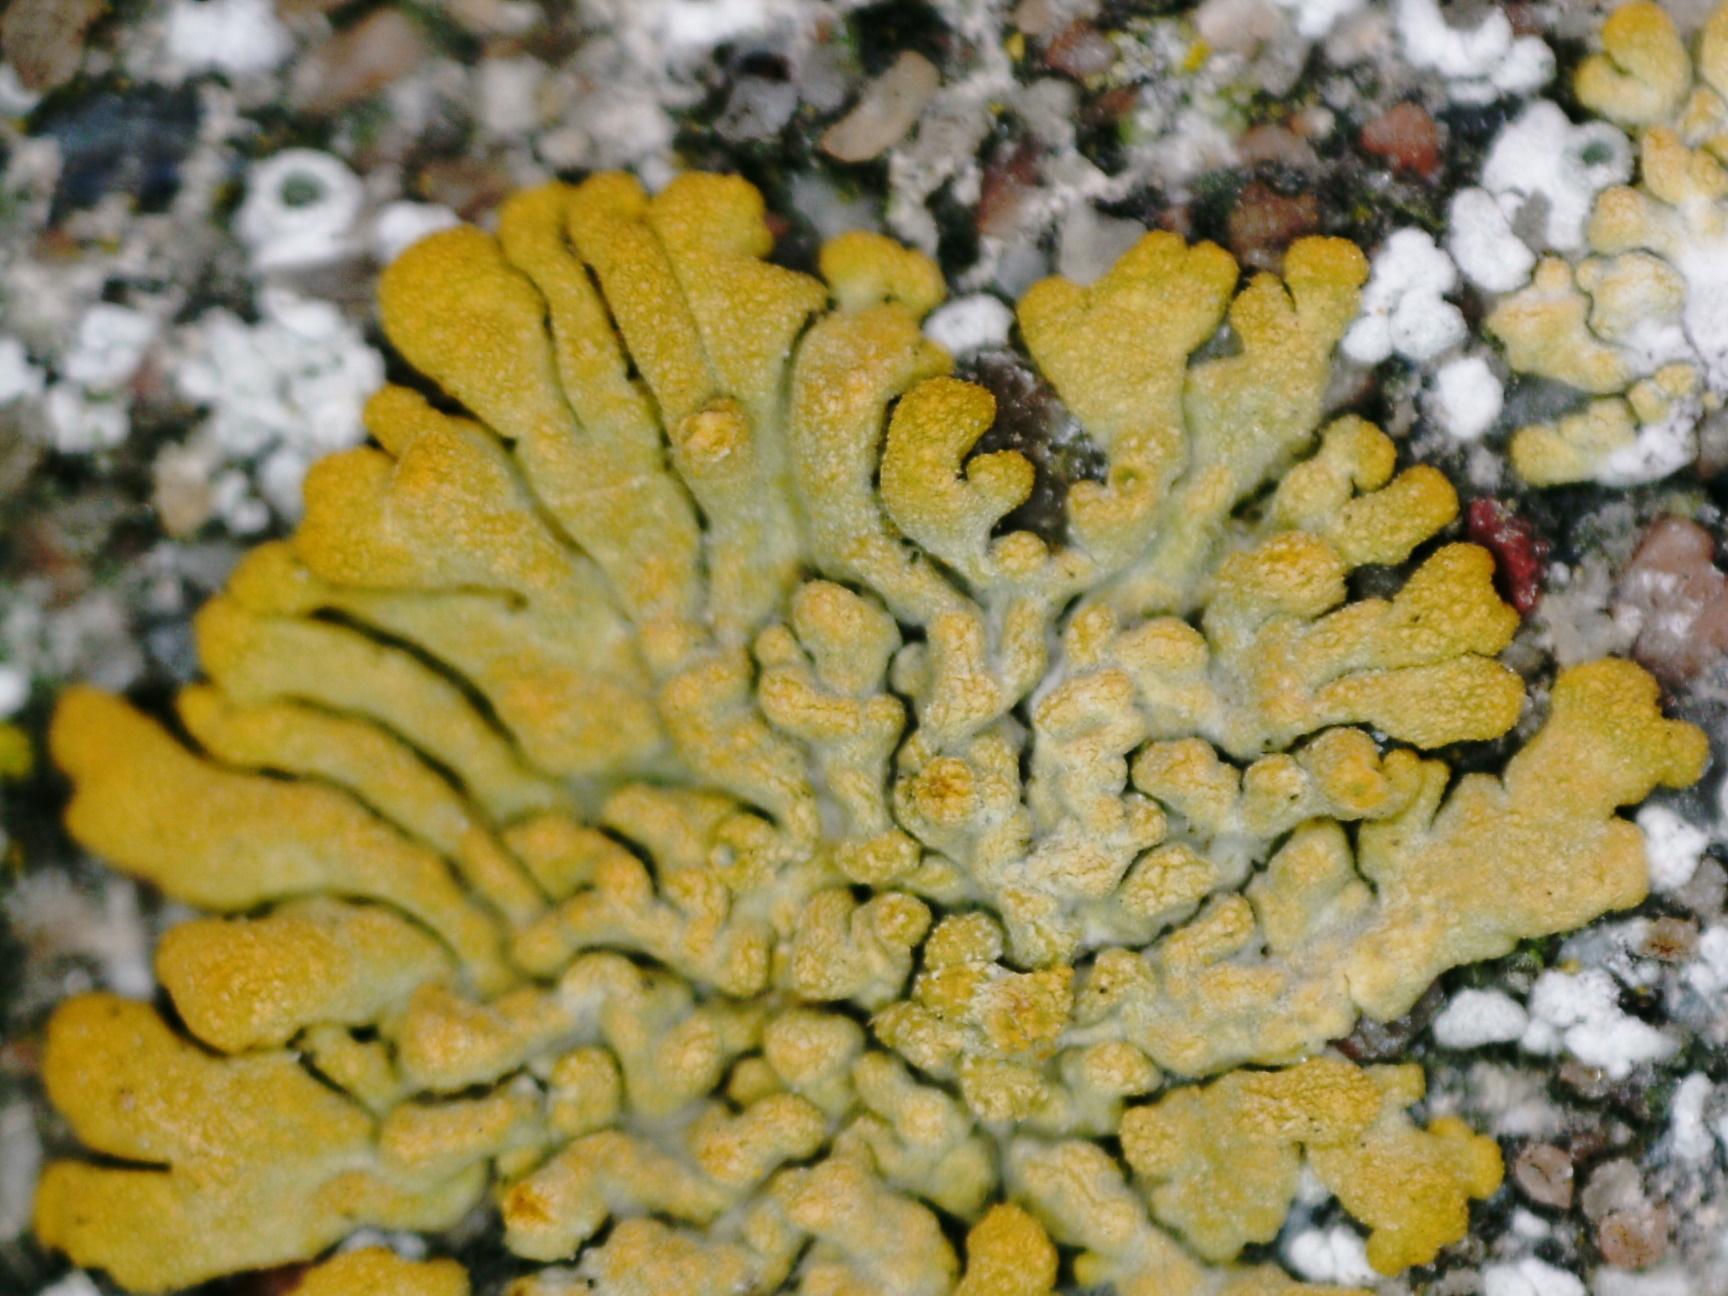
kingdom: Fungi
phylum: Ascomycota
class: Lecanoromycetes
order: Teloschistales
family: Teloschistaceae
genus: Calogaya
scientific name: Calogaya decipiens
